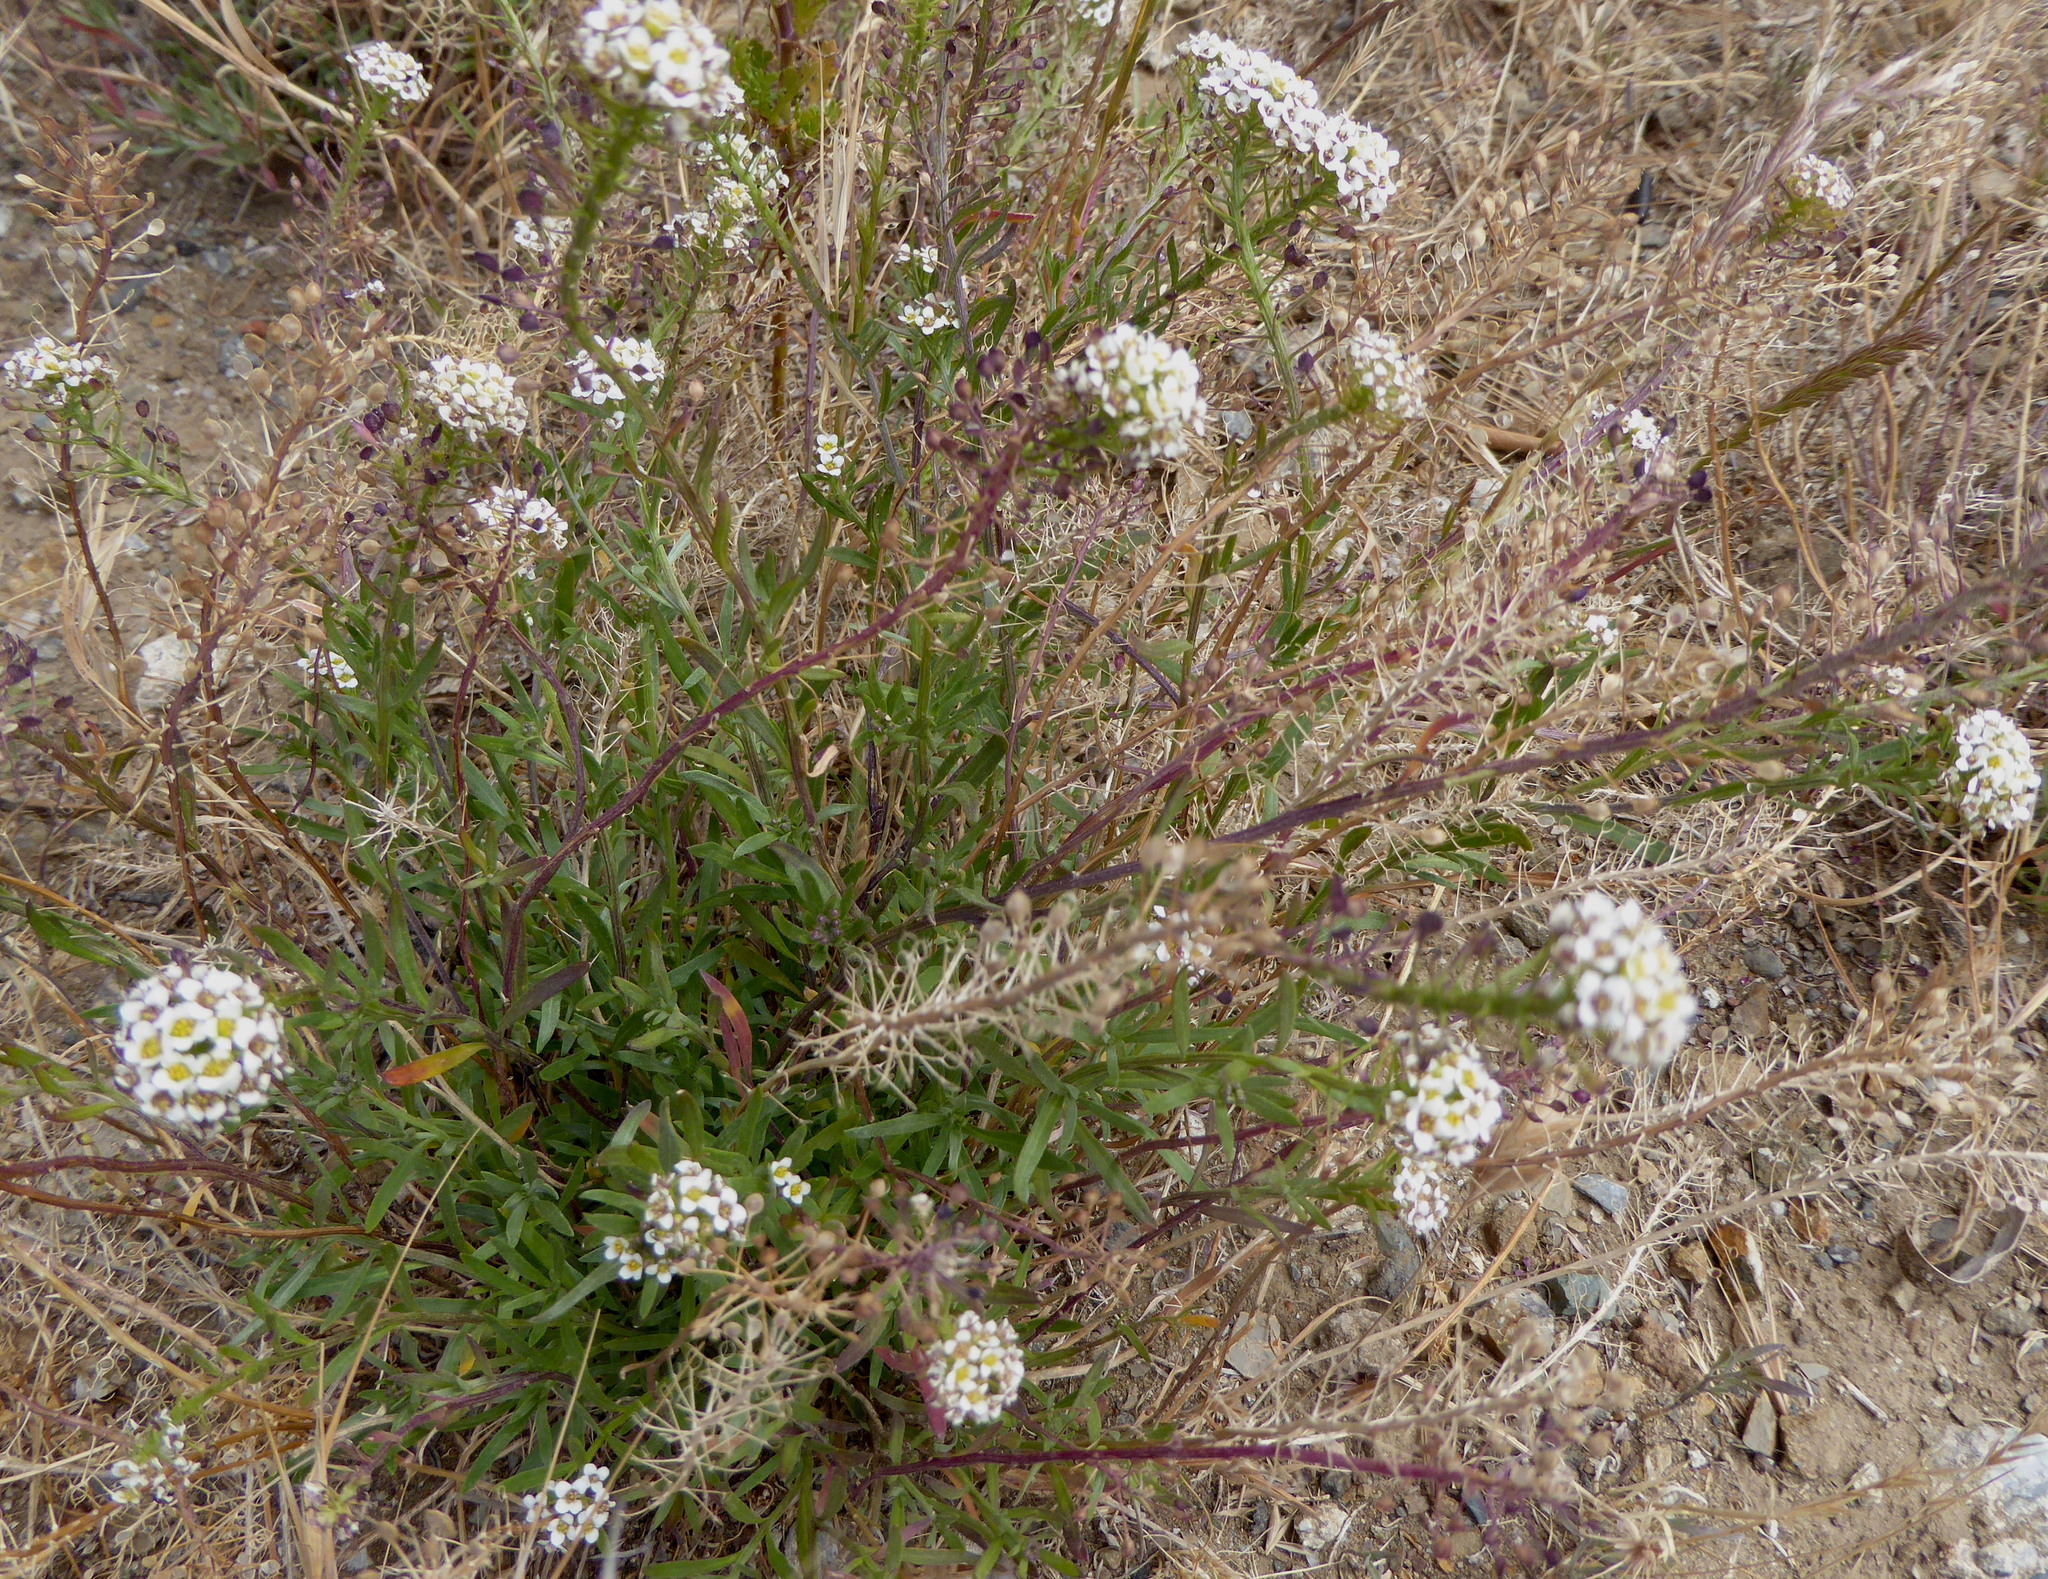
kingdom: Plantae
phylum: Tracheophyta
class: Magnoliopsida
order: Brassicales
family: Brassicaceae
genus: Lobularia
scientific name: Lobularia maritima
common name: Sweet alison
